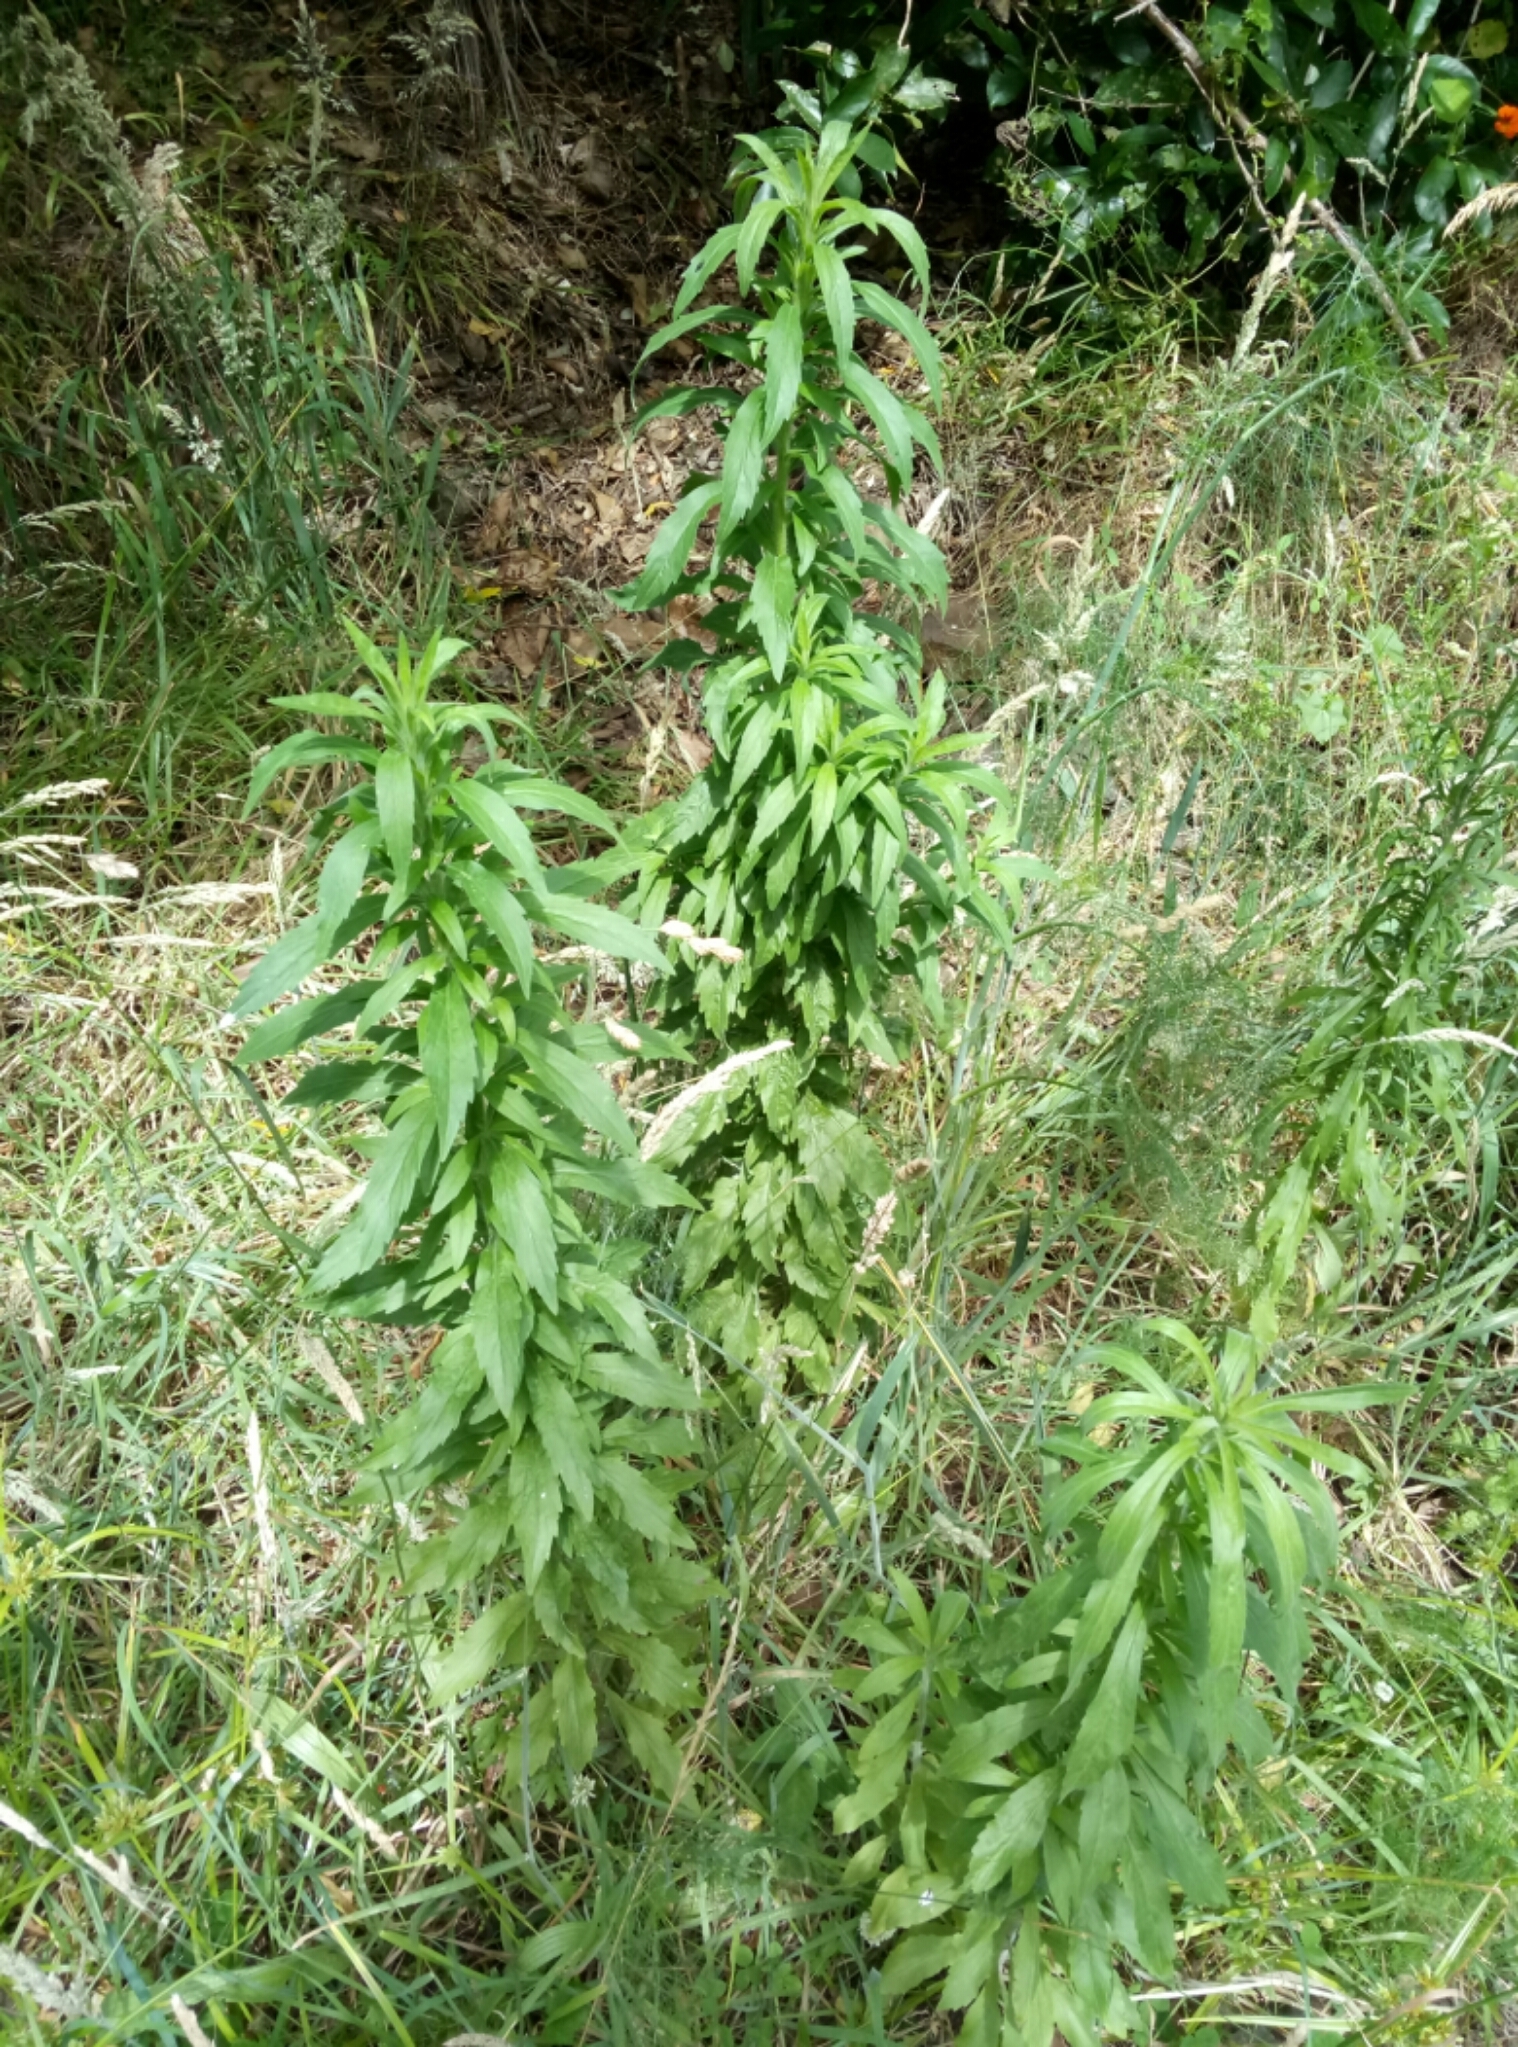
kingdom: Plantae
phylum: Tracheophyta
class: Magnoliopsida
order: Asterales
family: Asteraceae
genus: Erigeron
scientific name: Erigeron sumatrensis
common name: Daisy
